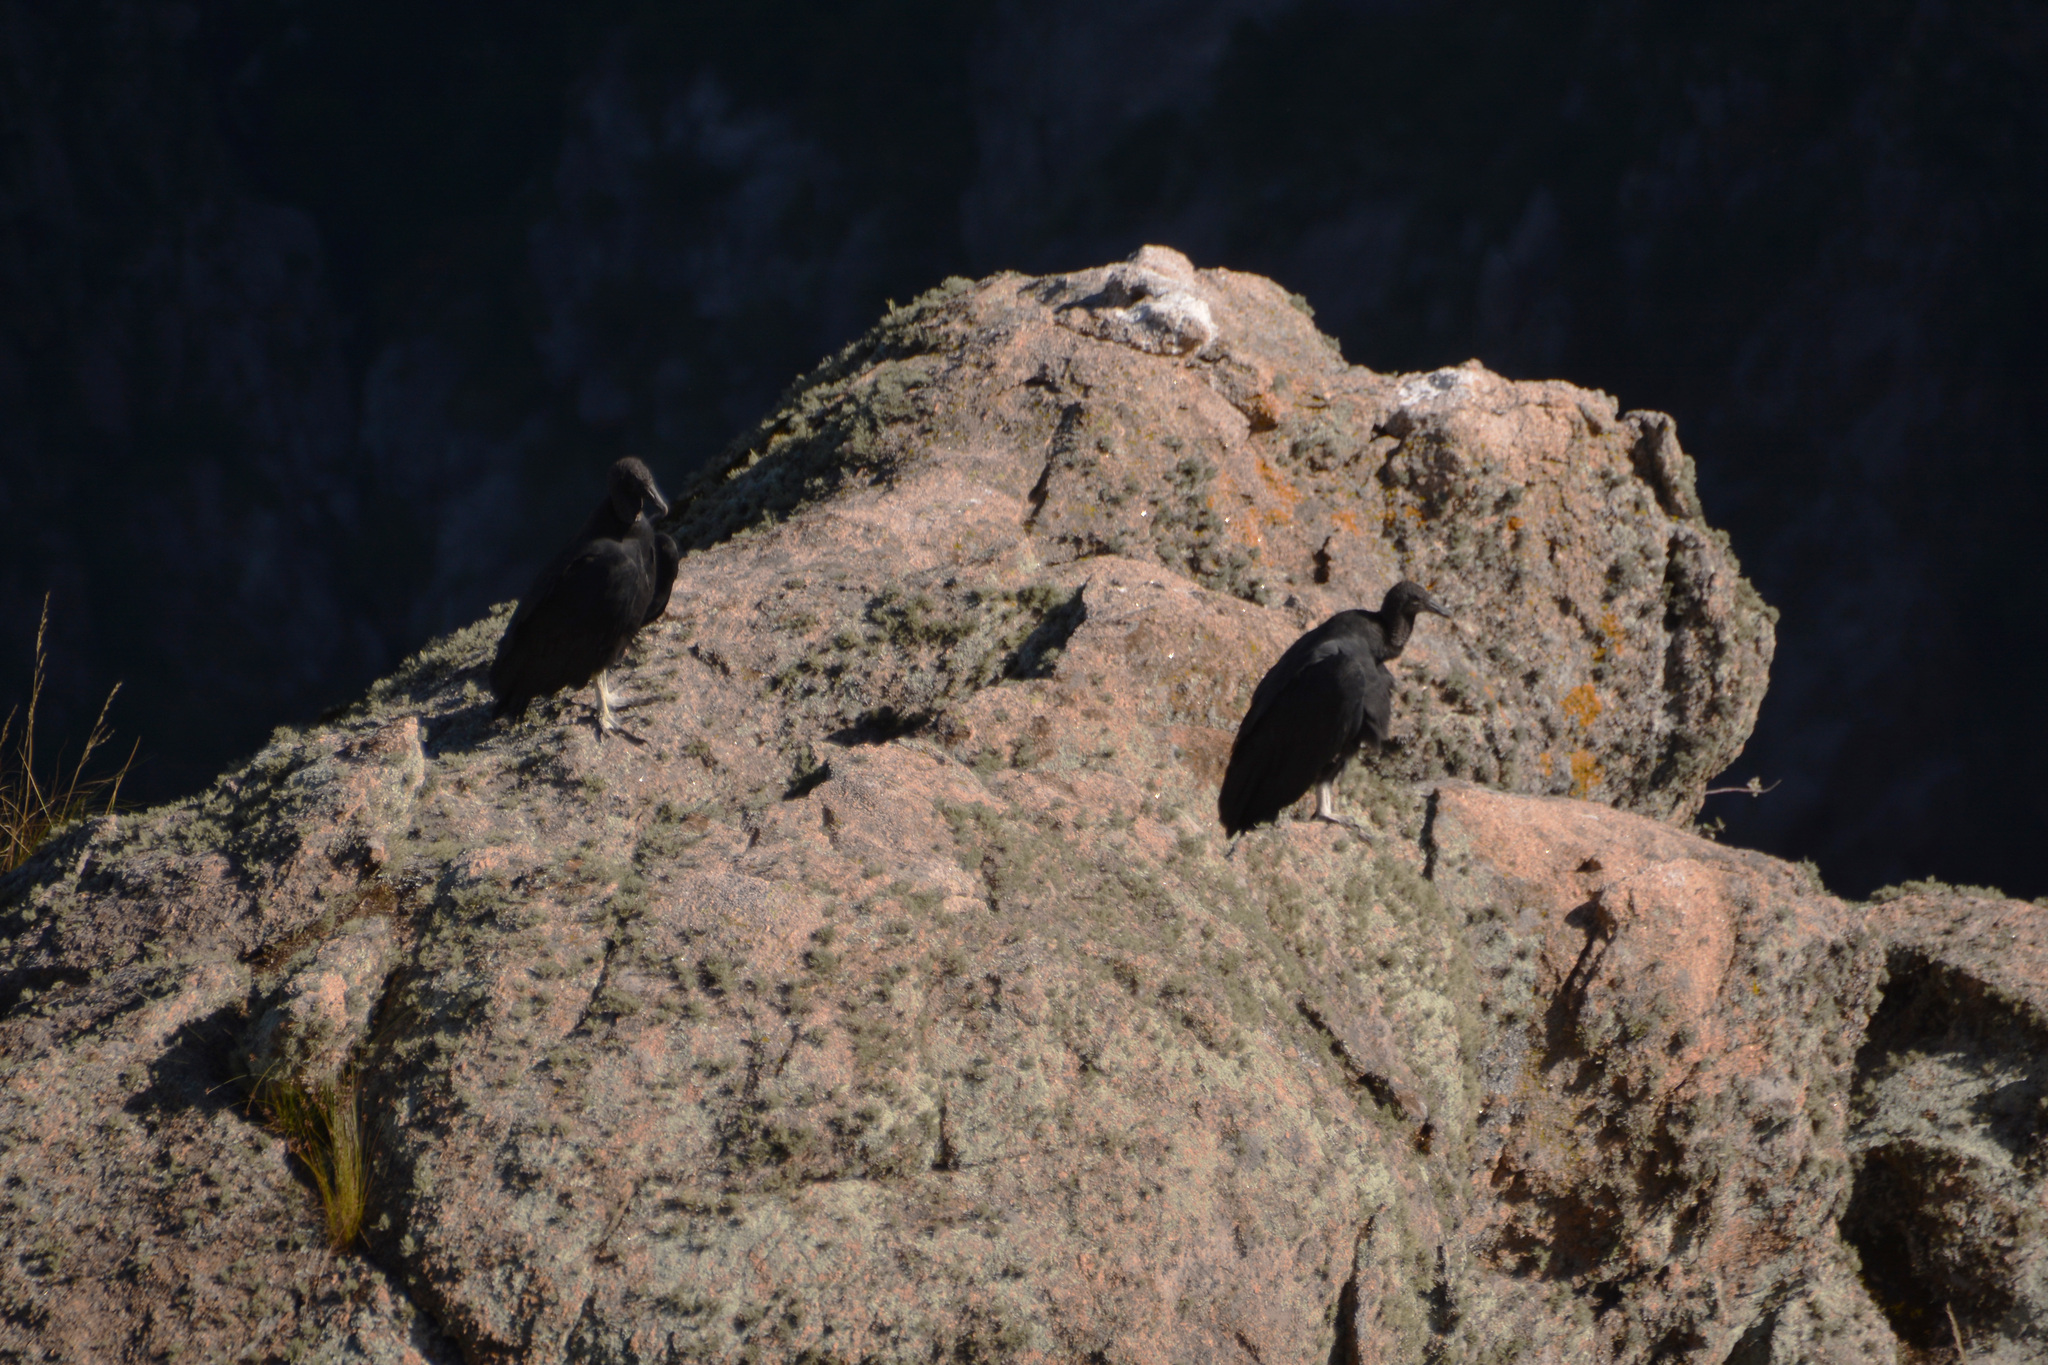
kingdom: Animalia
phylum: Chordata
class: Aves
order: Accipitriformes
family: Cathartidae
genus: Coragyps
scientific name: Coragyps atratus
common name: Black vulture
